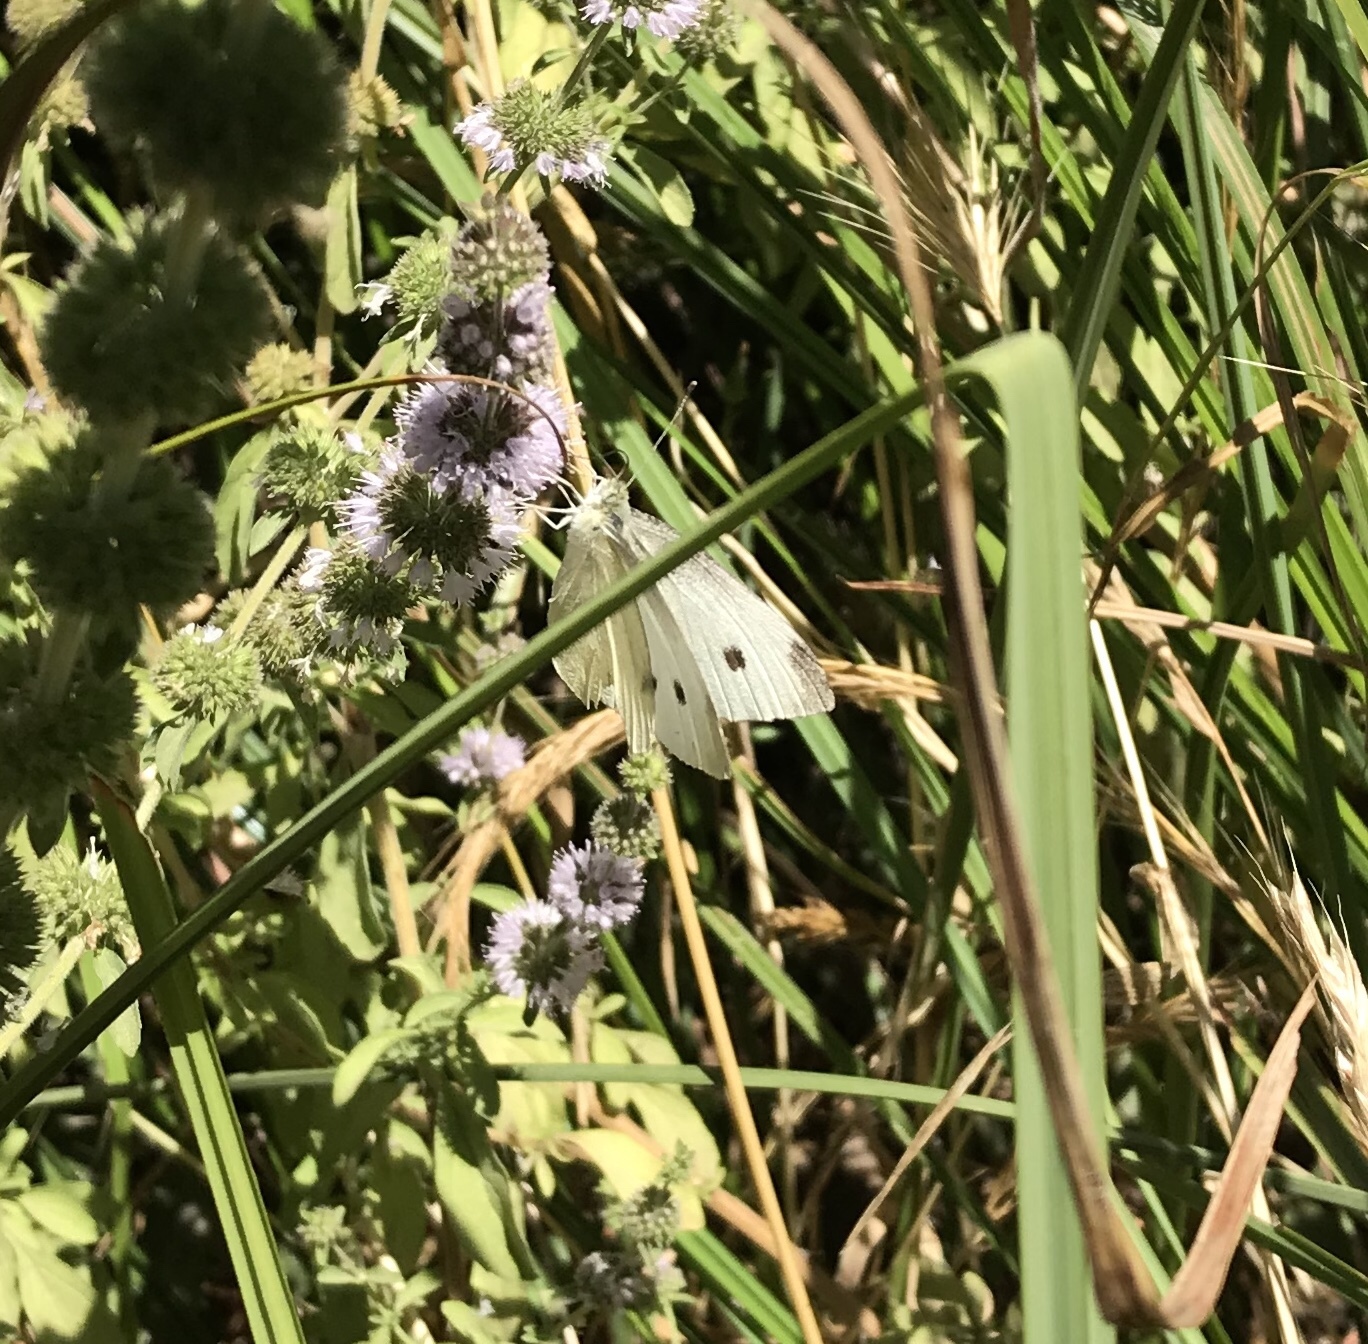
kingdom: Animalia
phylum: Arthropoda
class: Insecta
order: Lepidoptera
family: Pieridae
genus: Pieris
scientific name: Pieris rapae
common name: Small white
